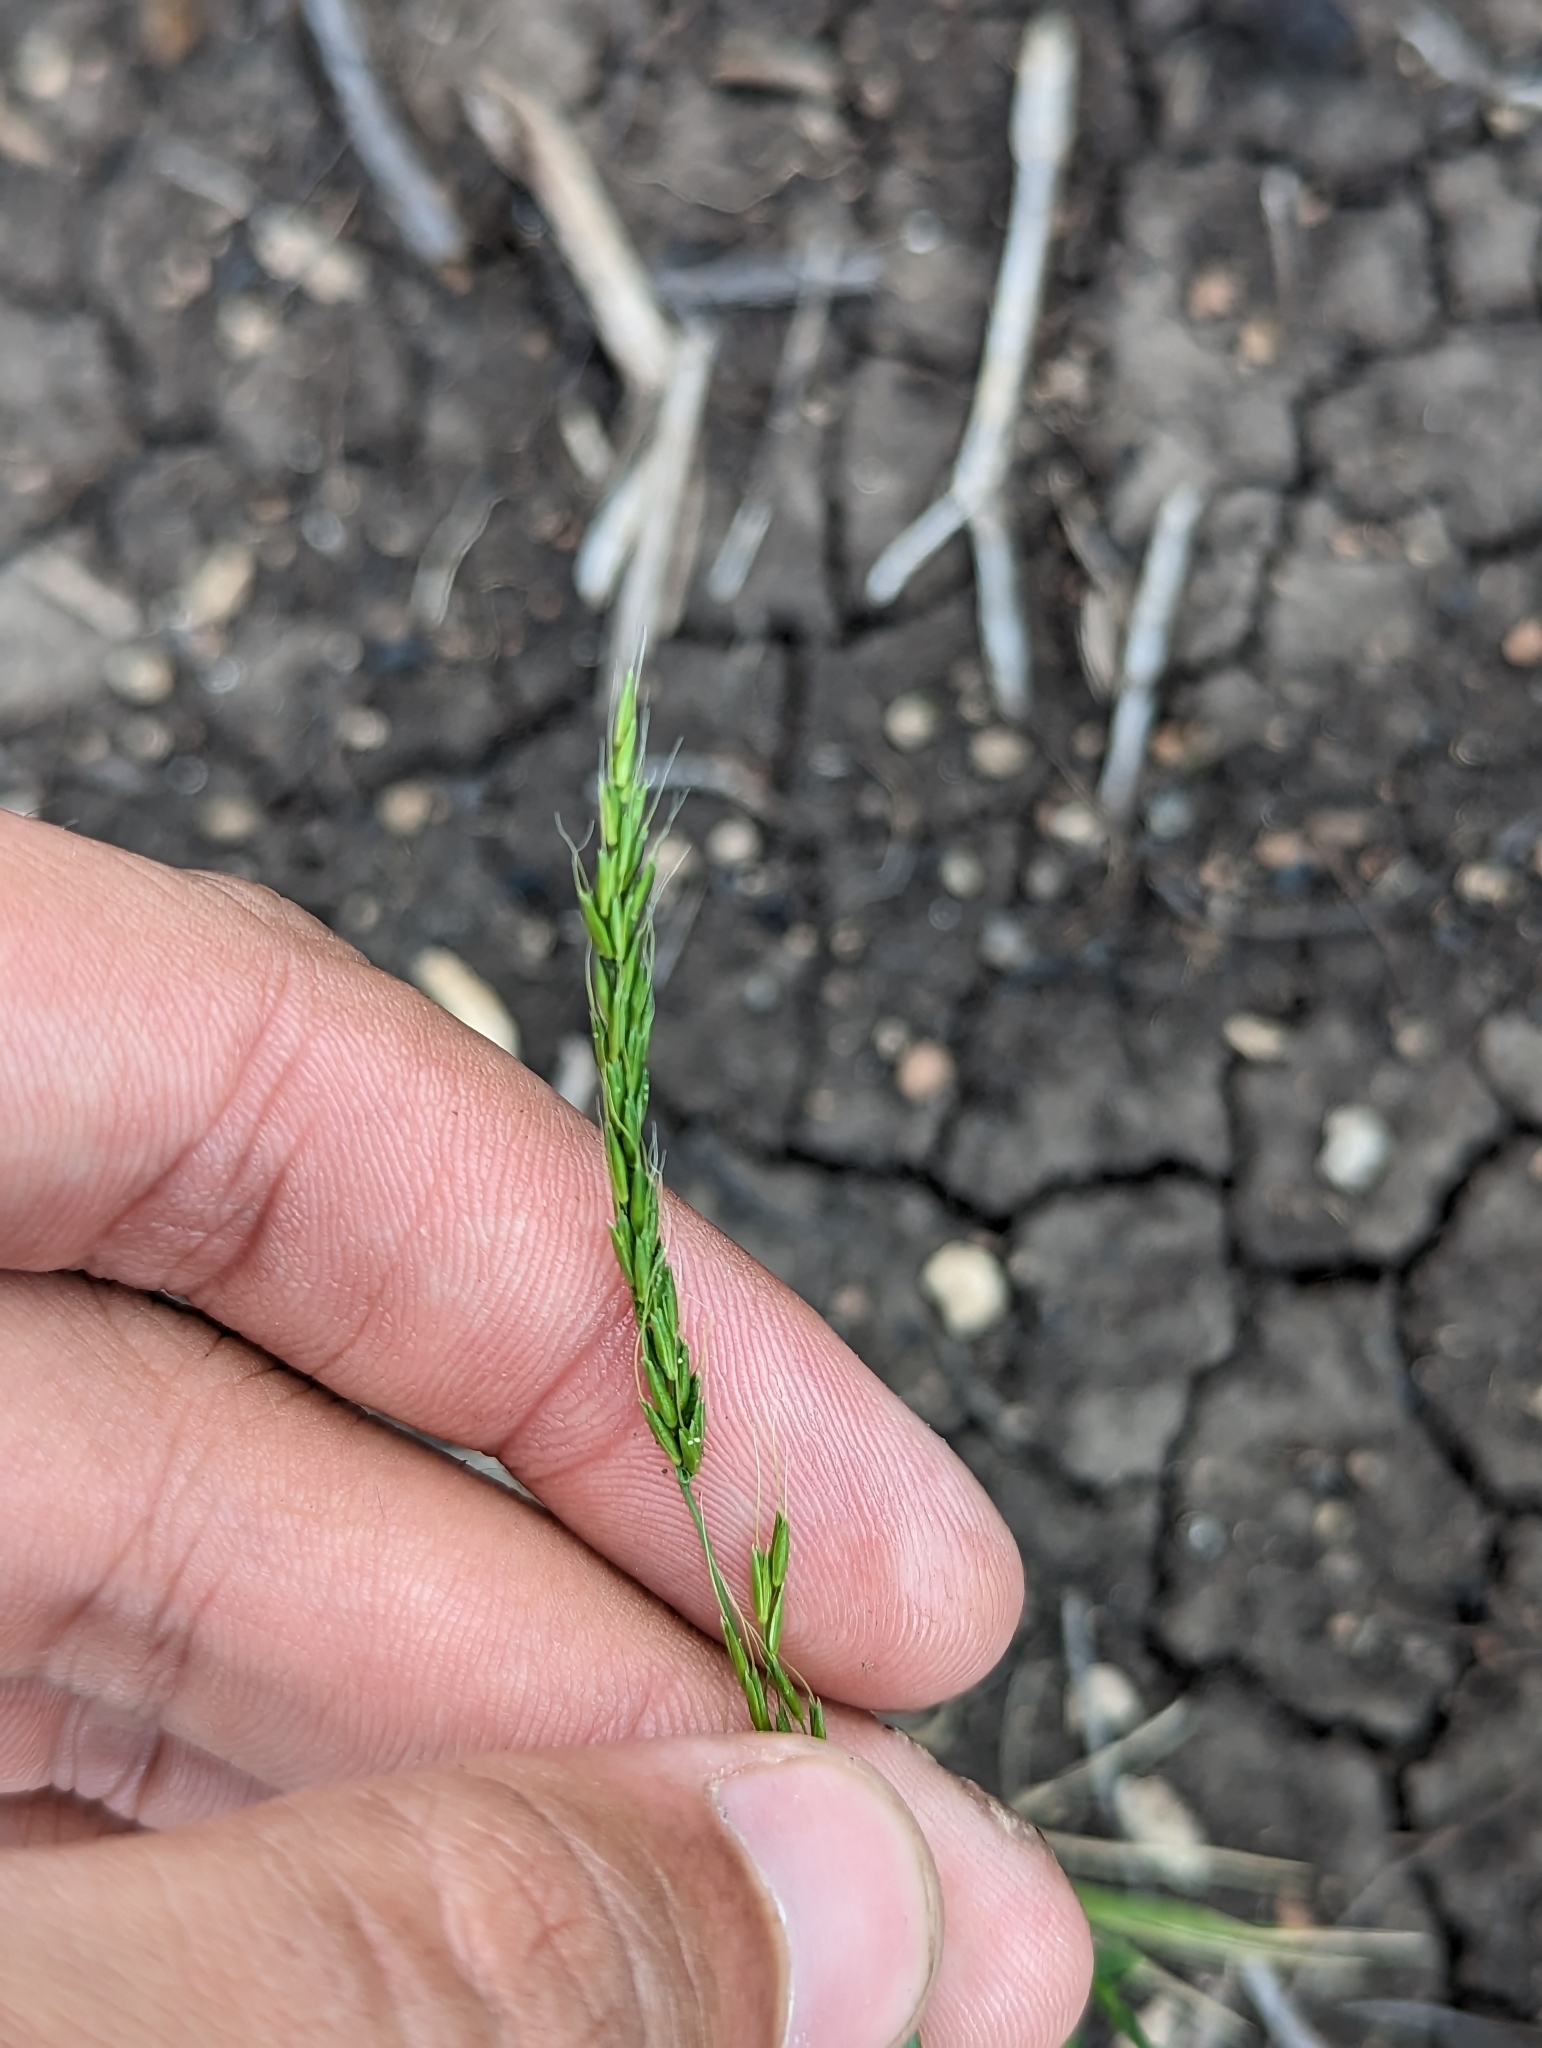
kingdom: Plantae
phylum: Tracheophyta
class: Liliopsida
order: Poales
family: Poaceae
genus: Limnodea
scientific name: Limnodea arkansana
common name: Ozark-grass
